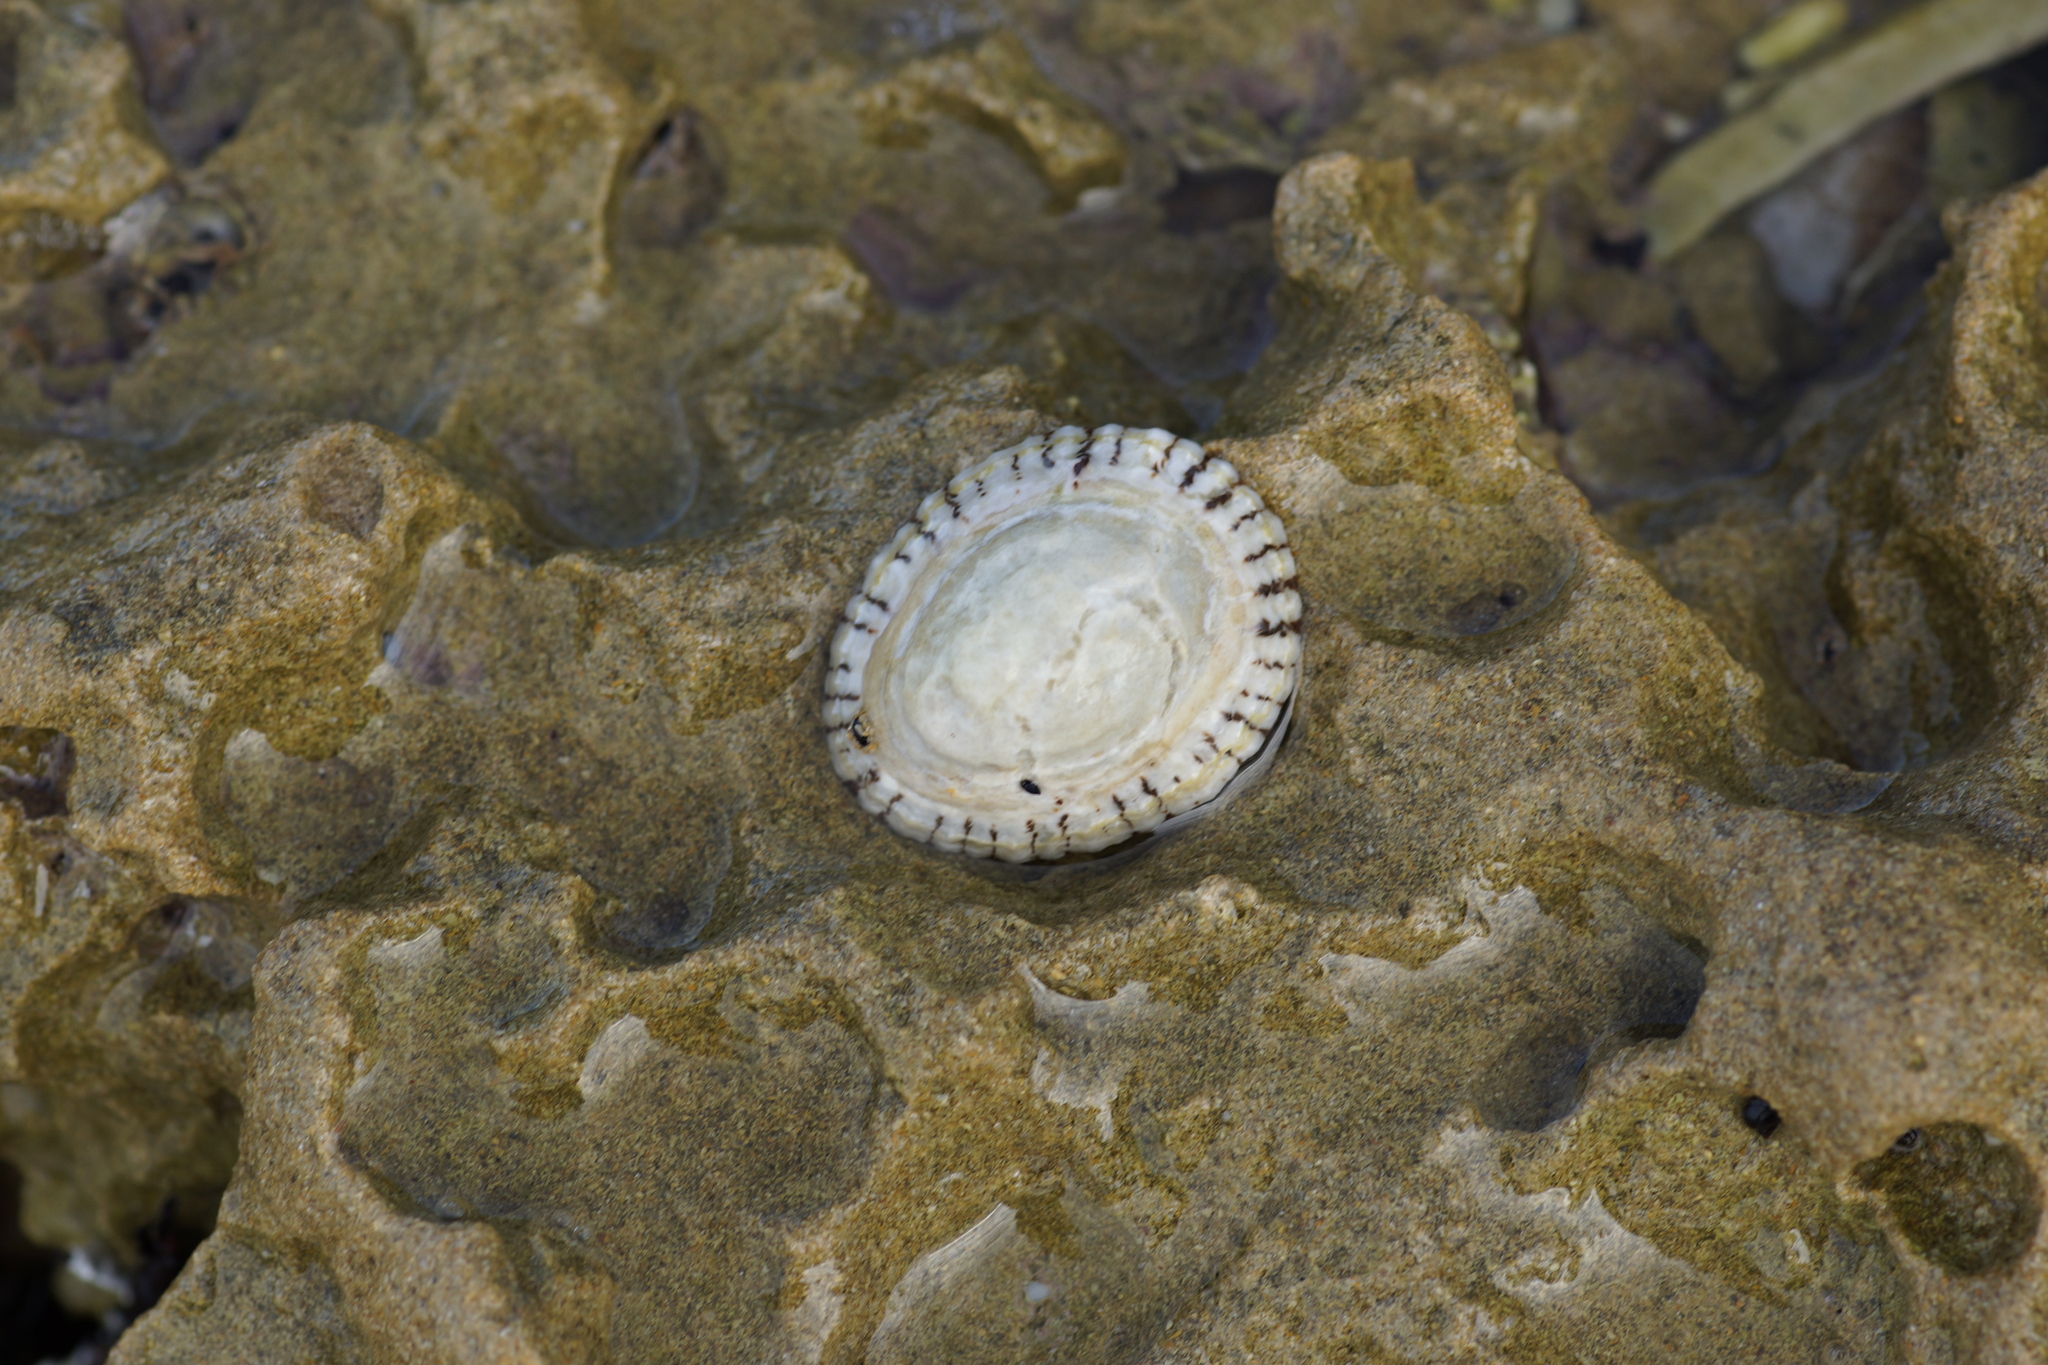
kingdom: Animalia
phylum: Mollusca
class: Gastropoda
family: Nacellidae
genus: Cellana
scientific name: Cellana tramoserica
